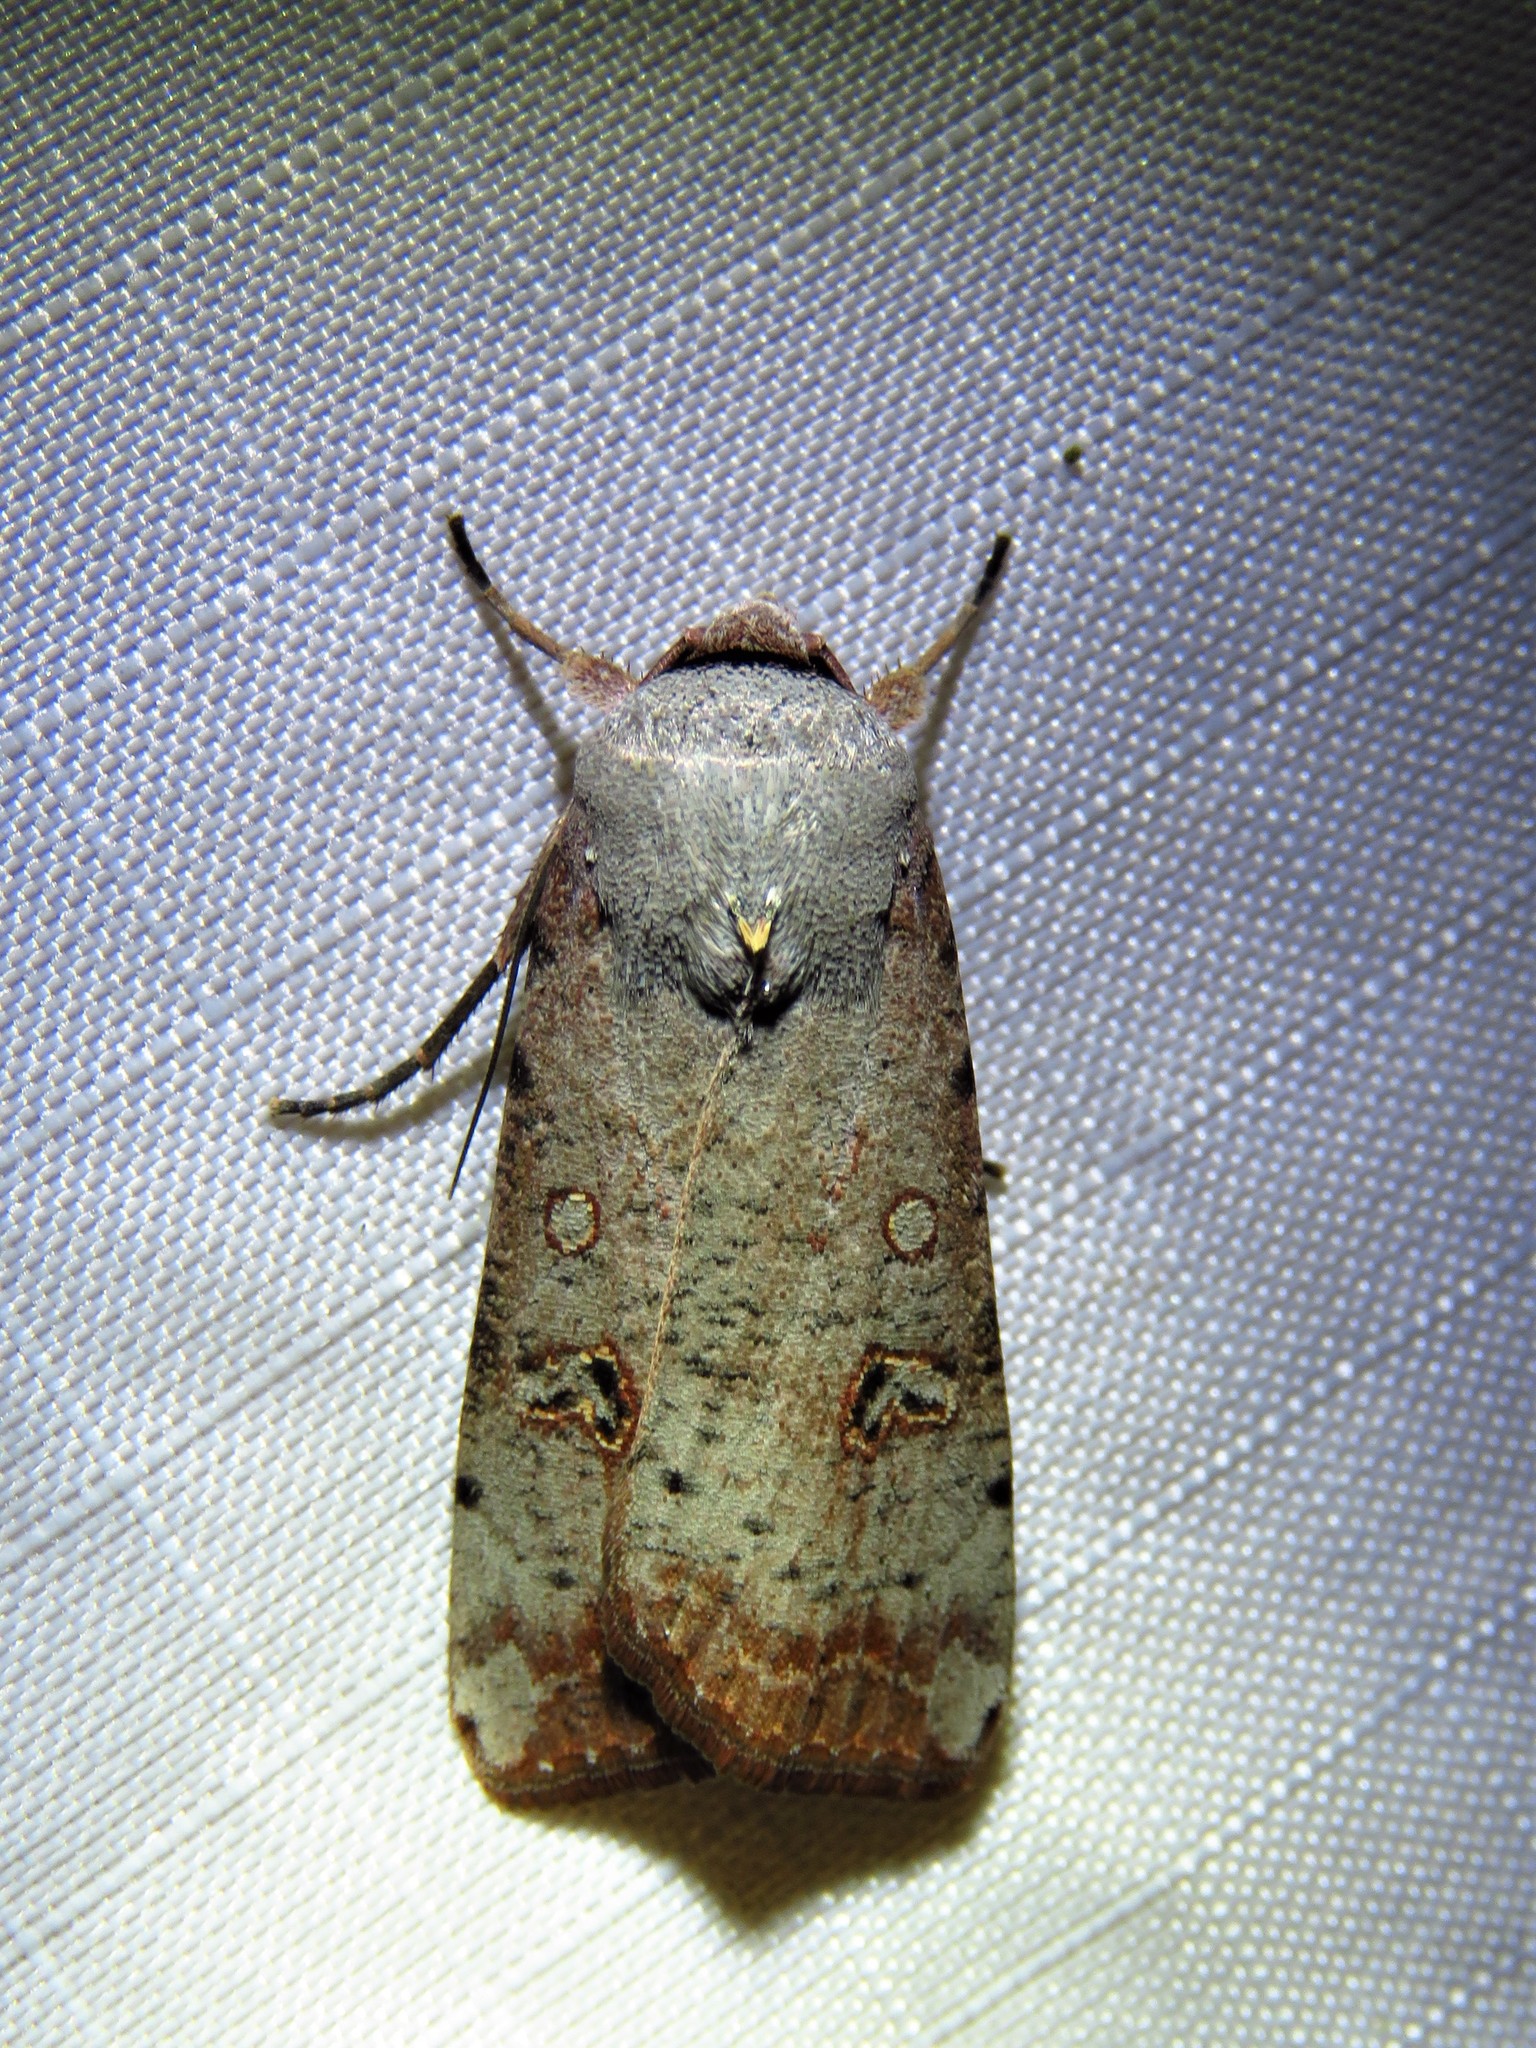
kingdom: Animalia
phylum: Arthropoda
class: Insecta
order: Lepidoptera
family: Noctuidae
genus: Anicla
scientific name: Anicla infecta
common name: Green cutworm
